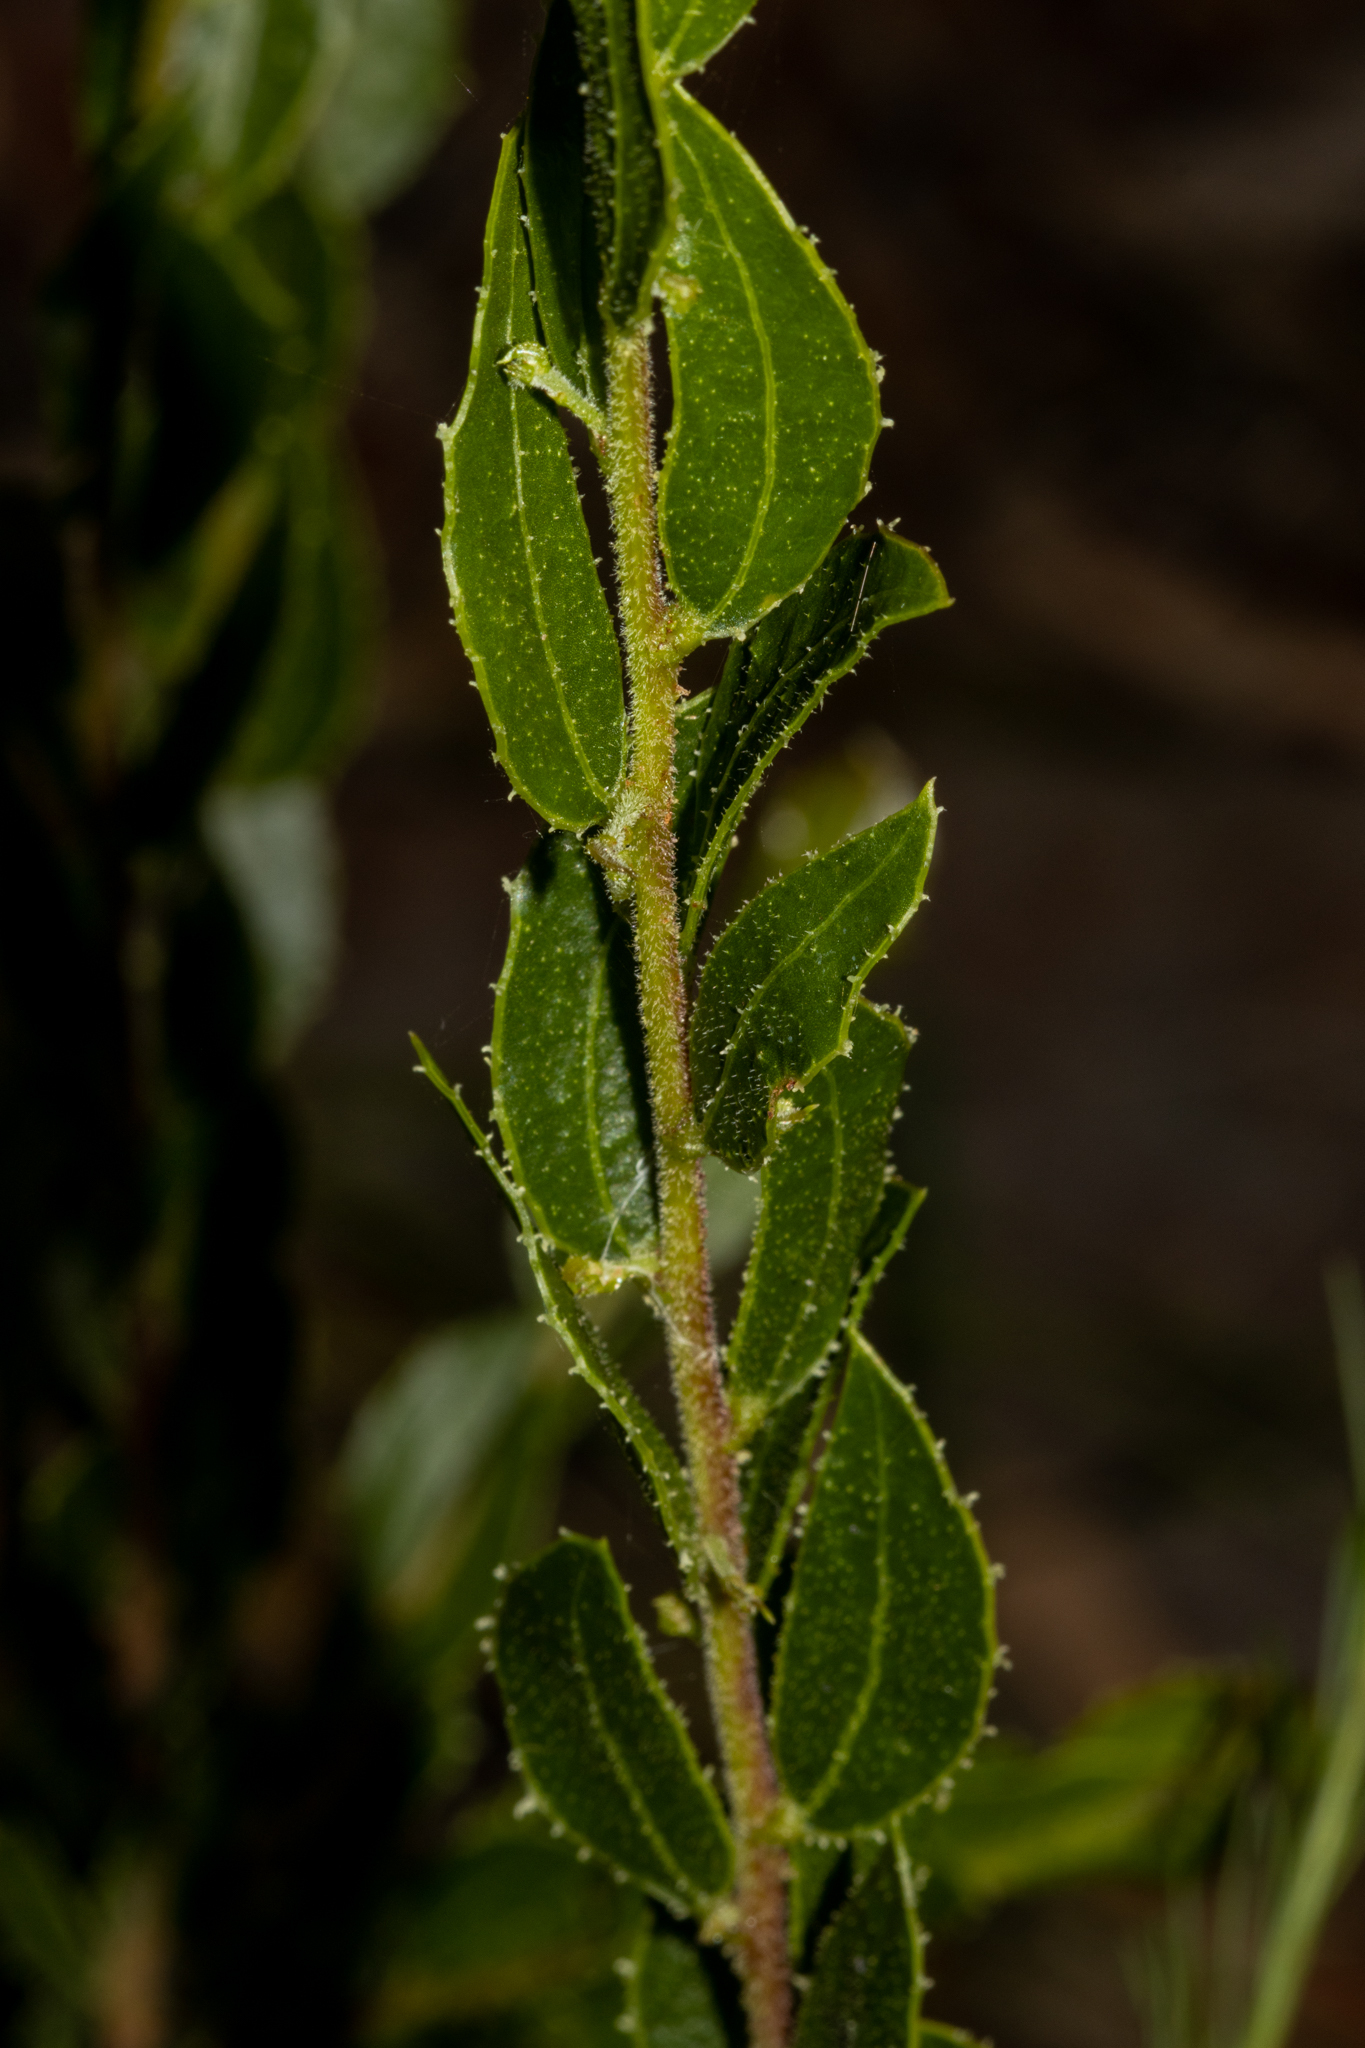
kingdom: Plantae
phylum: Tracheophyta
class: Magnoliopsida
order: Fabales
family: Fabaceae
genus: Acacia
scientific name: Acacia hispidula
